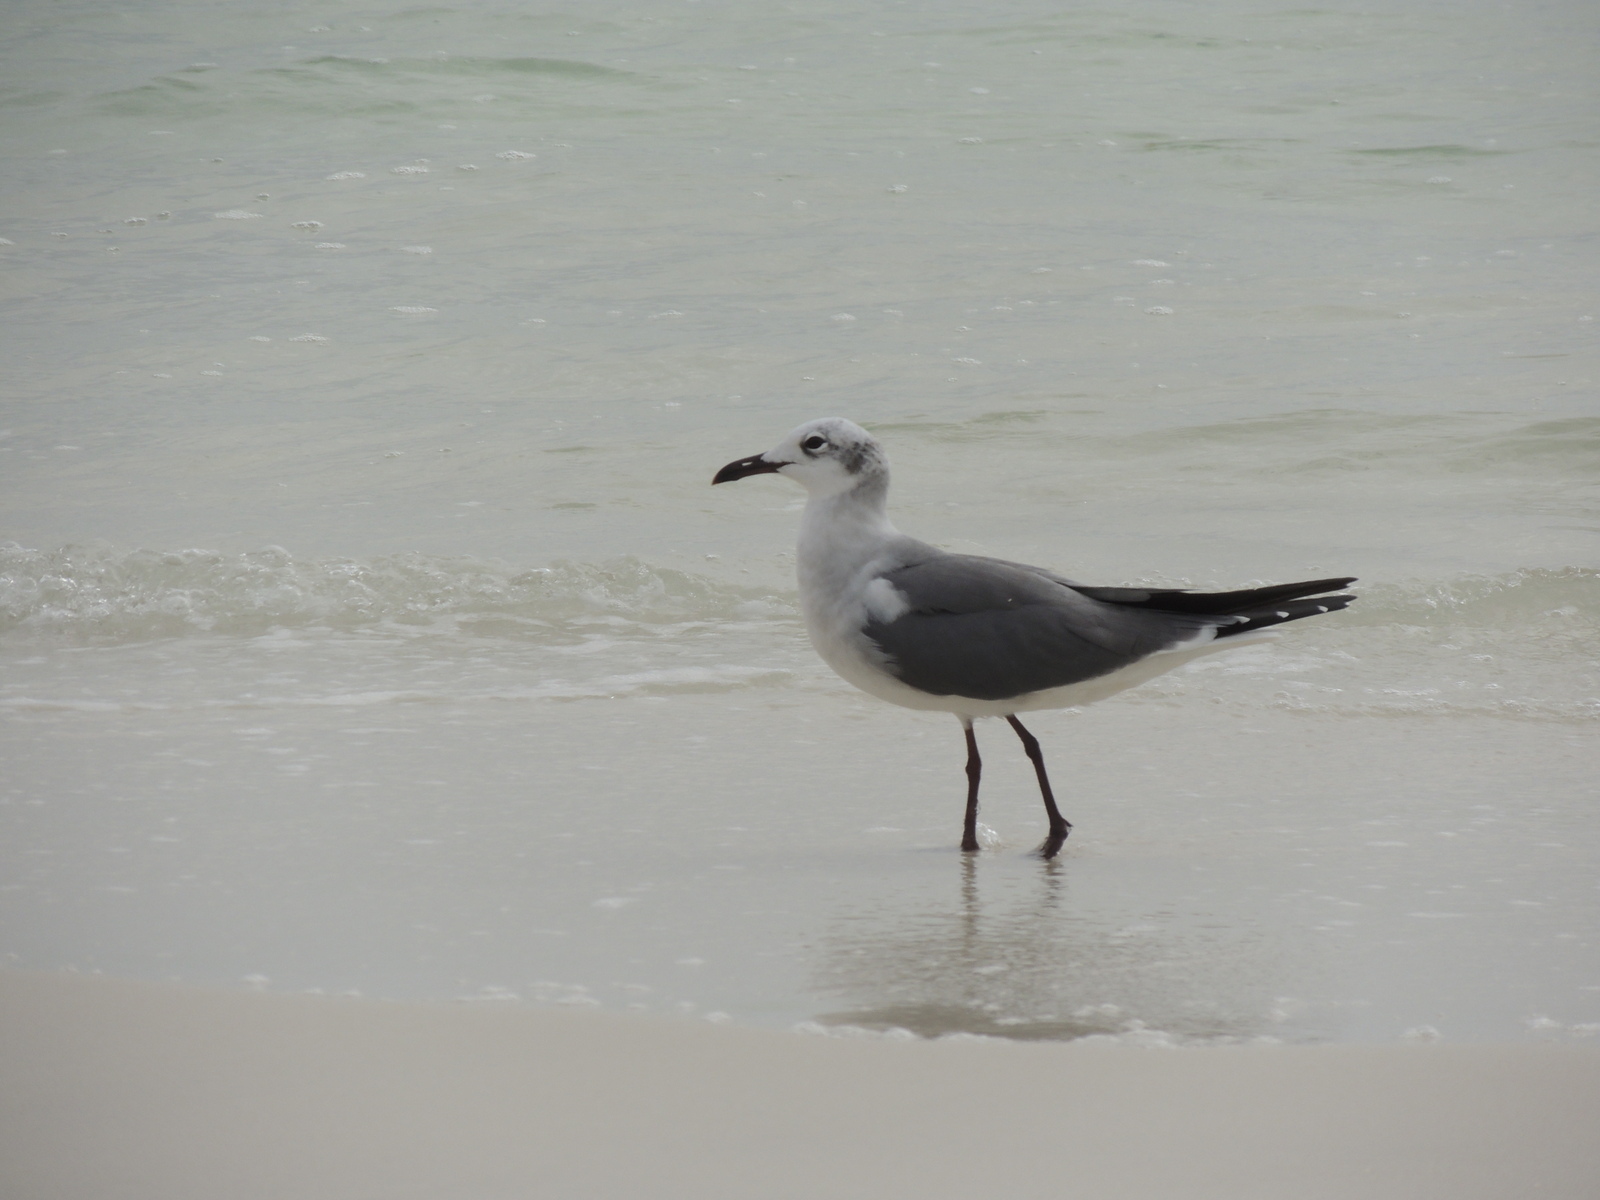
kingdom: Animalia
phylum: Chordata
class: Aves
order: Charadriiformes
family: Laridae
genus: Leucophaeus
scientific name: Leucophaeus atricilla
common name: Laughing gull
